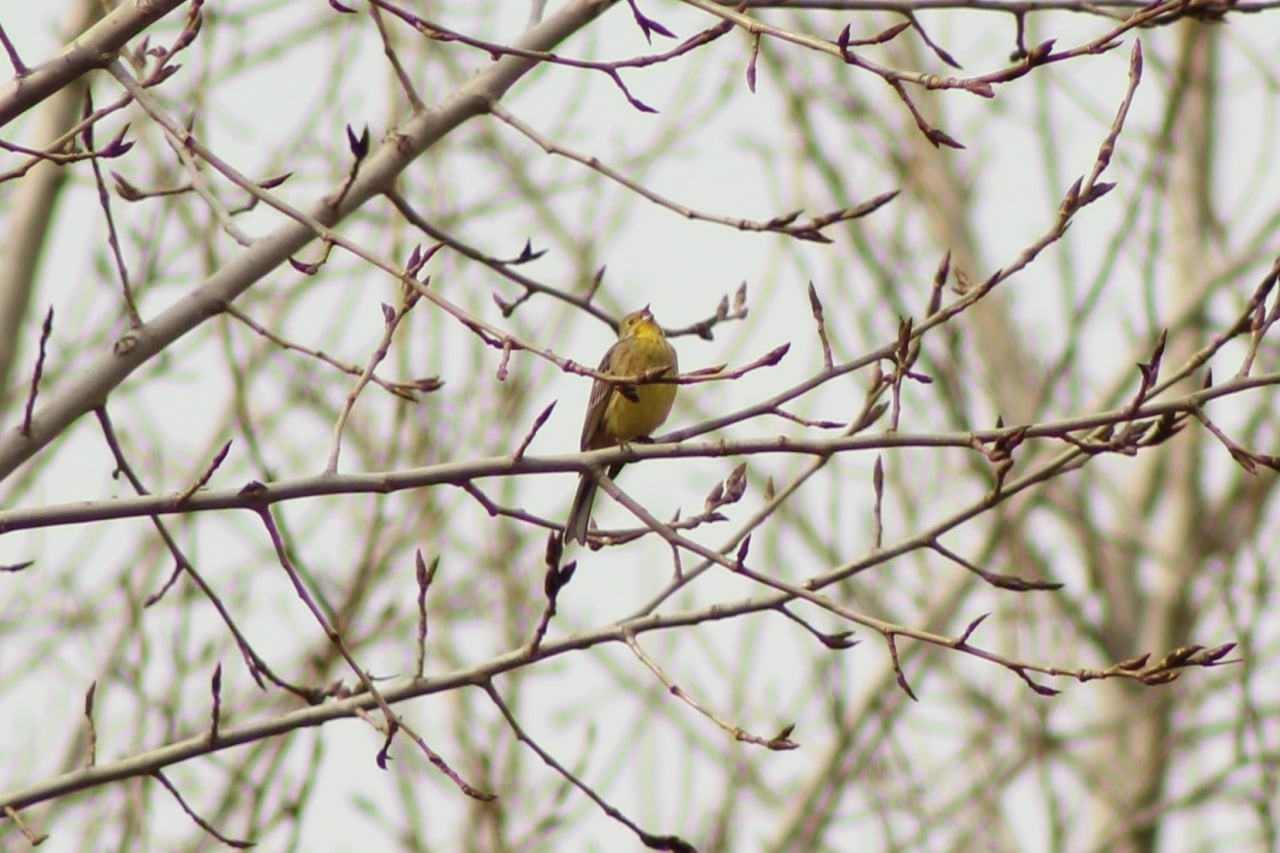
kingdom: Animalia
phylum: Chordata
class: Aves
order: Passeriformes
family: Emberizidae
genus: Emberiza
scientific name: Emberiza citrinella
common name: Yellowhammer
